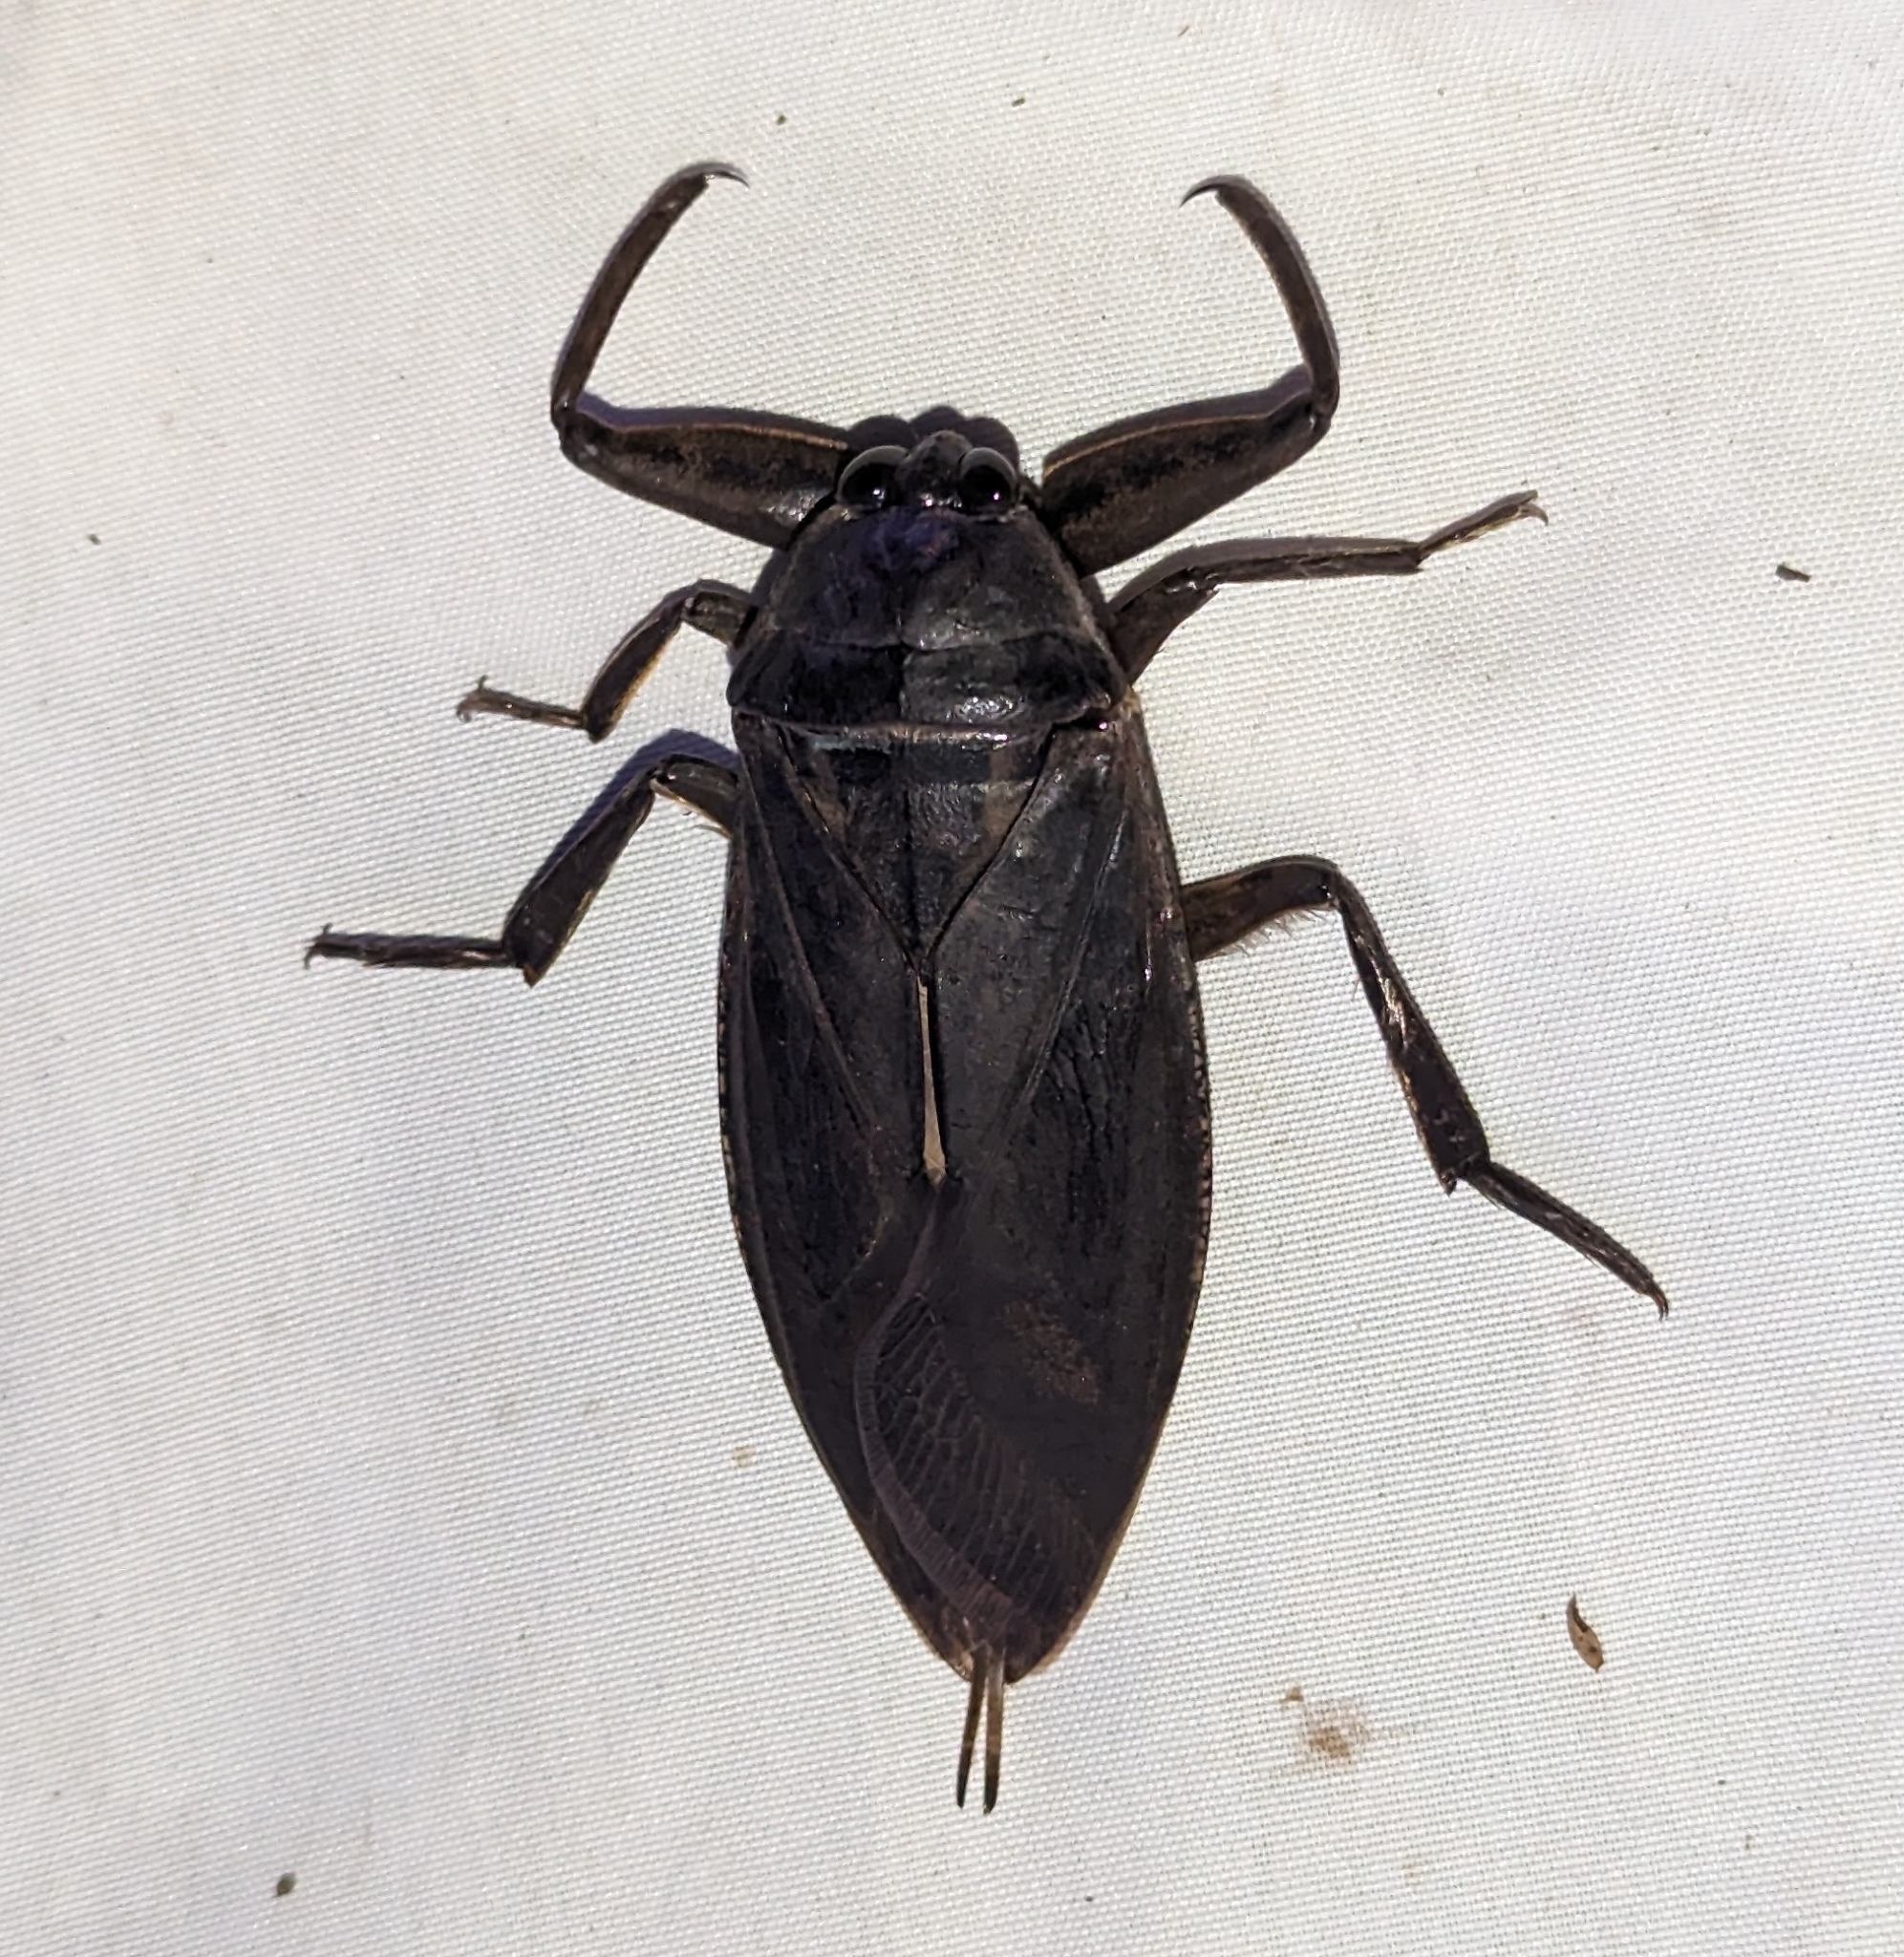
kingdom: Animalia
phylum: Arthropoda
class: Insecta
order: Hemiptera
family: Belostomatidae
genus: Lethocerus
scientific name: Lethocerus americanus
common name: Giant water bug
